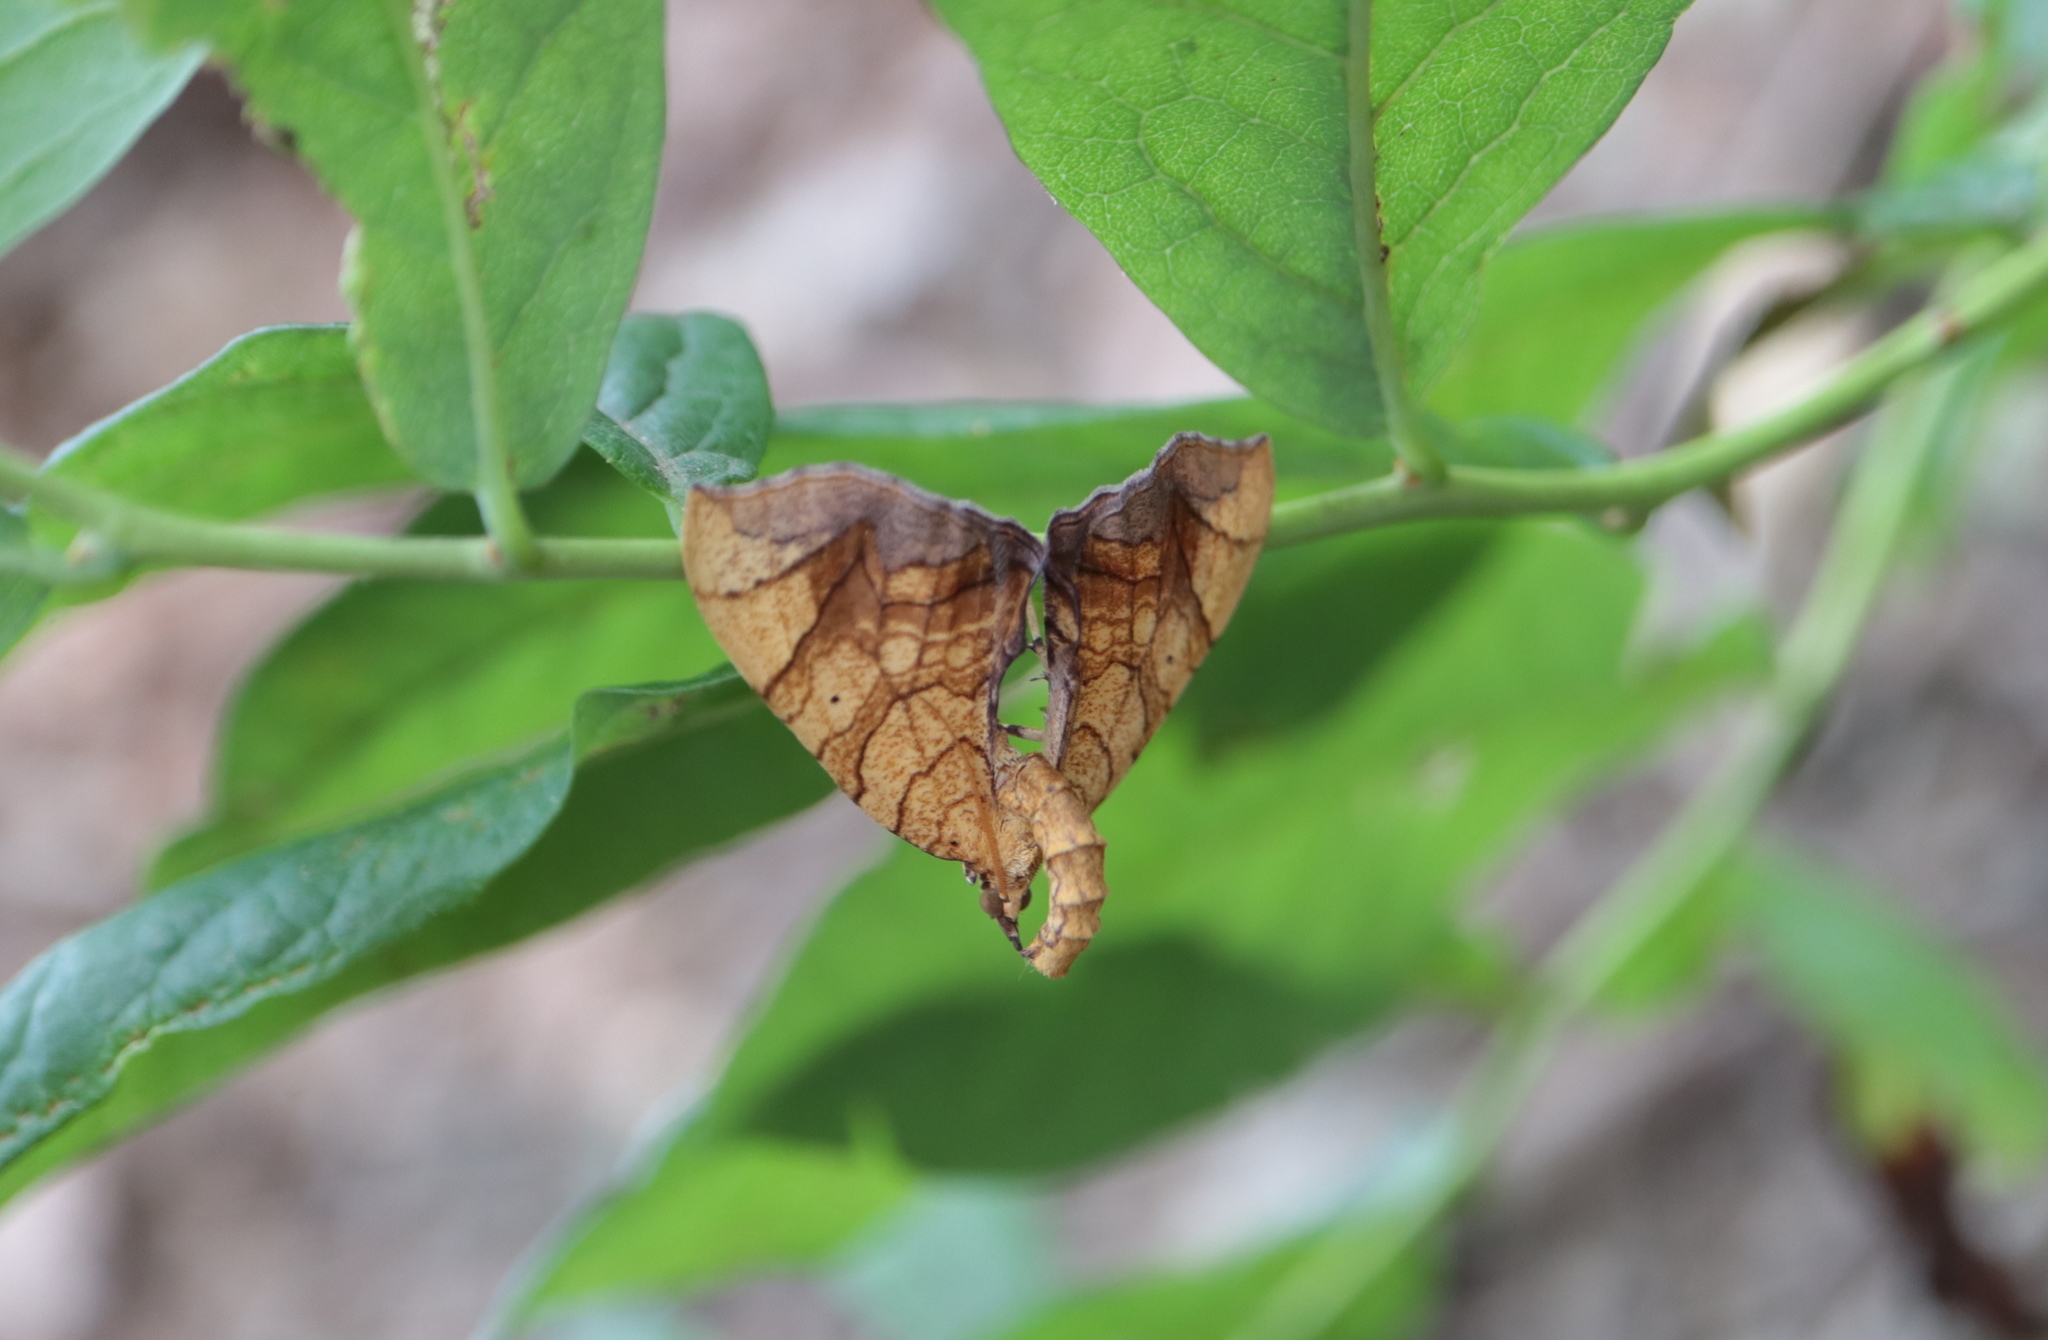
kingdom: Animalia
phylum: Arthropoda
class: Insecta
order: Lepidoptera
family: Geometridae
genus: Eulithis
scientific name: Eulithis
